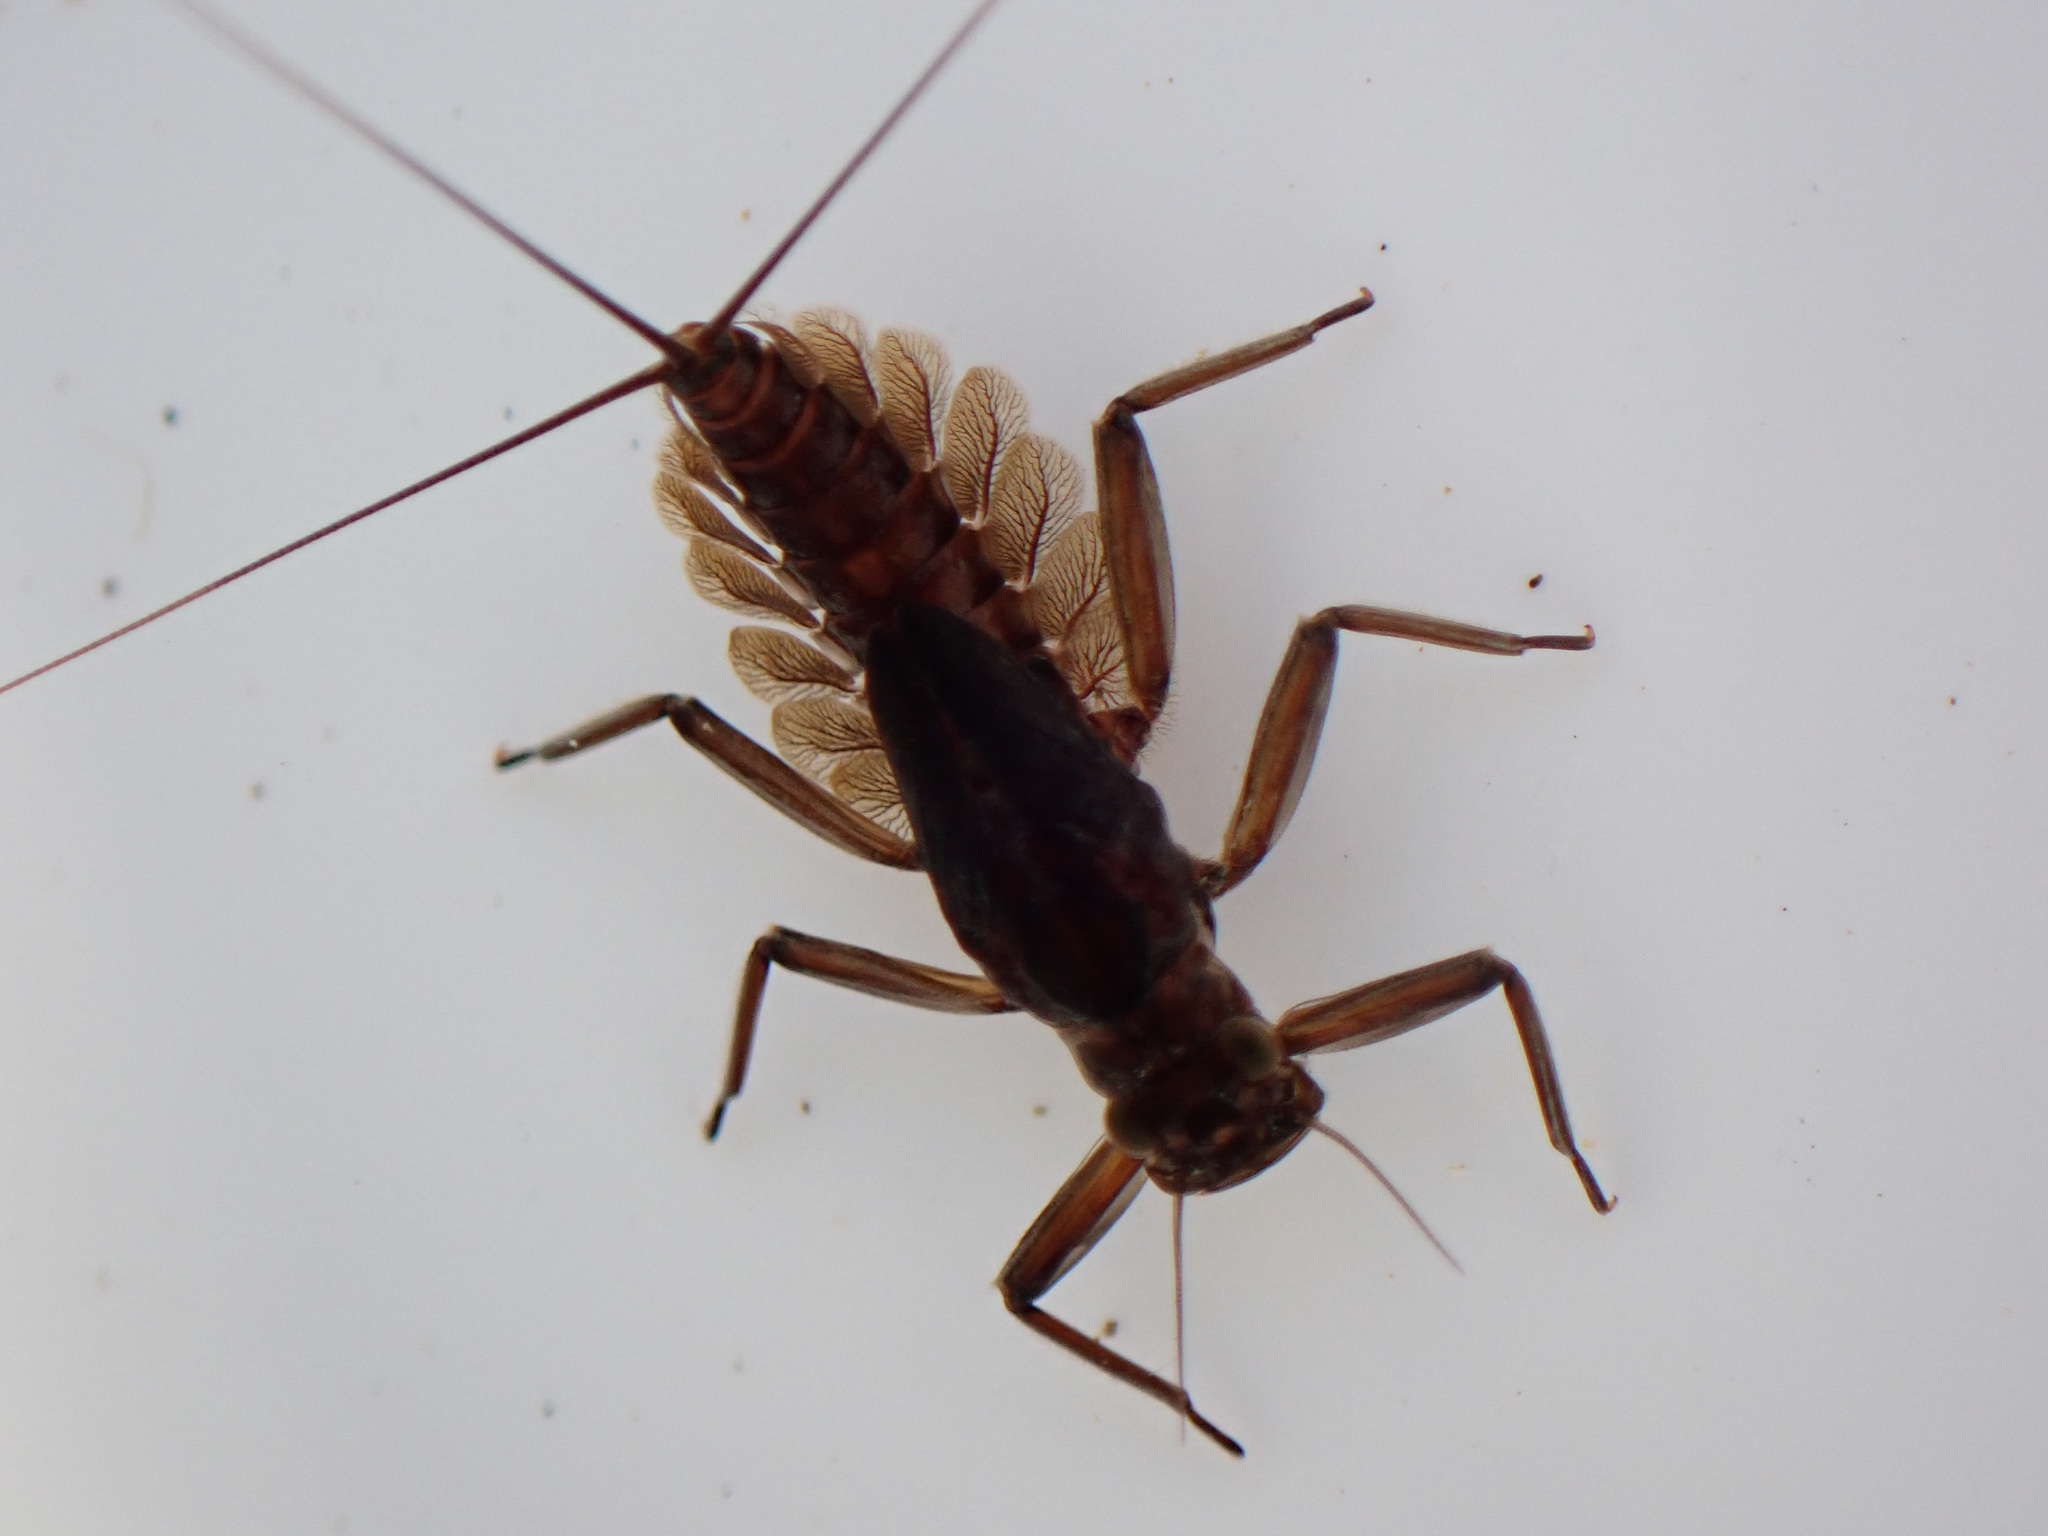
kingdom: Animalia
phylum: Arthropoda
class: Insecta
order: Ephemeroptera
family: Leptophlebiidae
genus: Deleatidium
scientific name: Deleatidium myzobranchia
